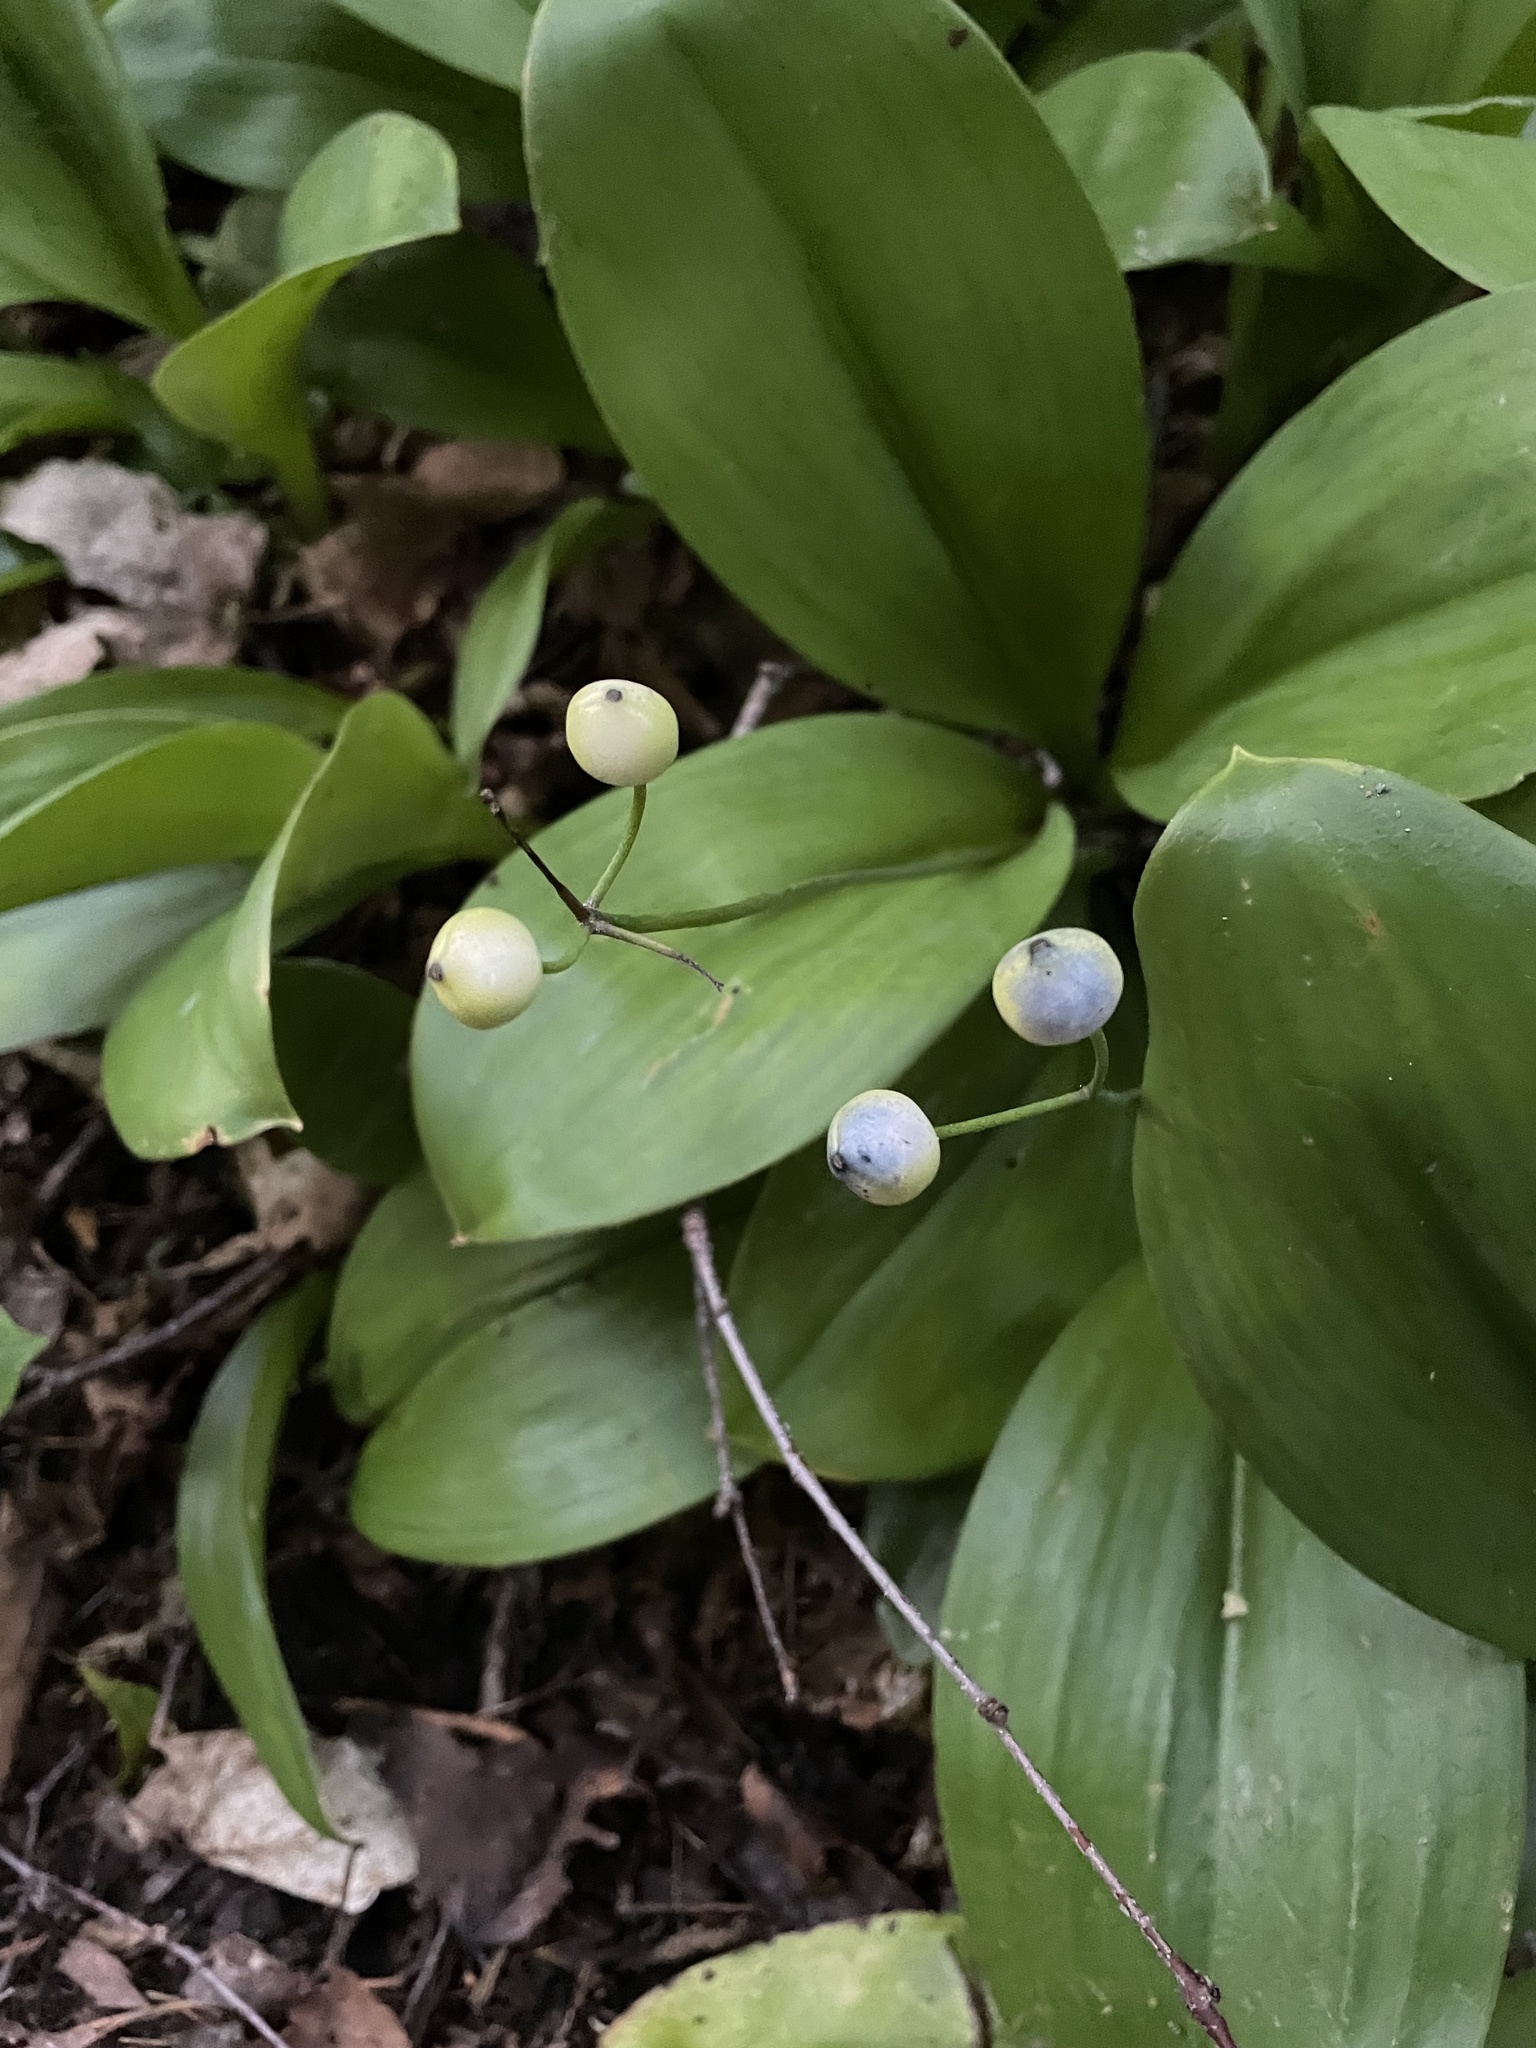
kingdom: Plantae
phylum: Tracheophyta
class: Liliopsida
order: Liliales
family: Liliaceae
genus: Clintonia
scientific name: Clintonia borealis
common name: Yellow clintonia
